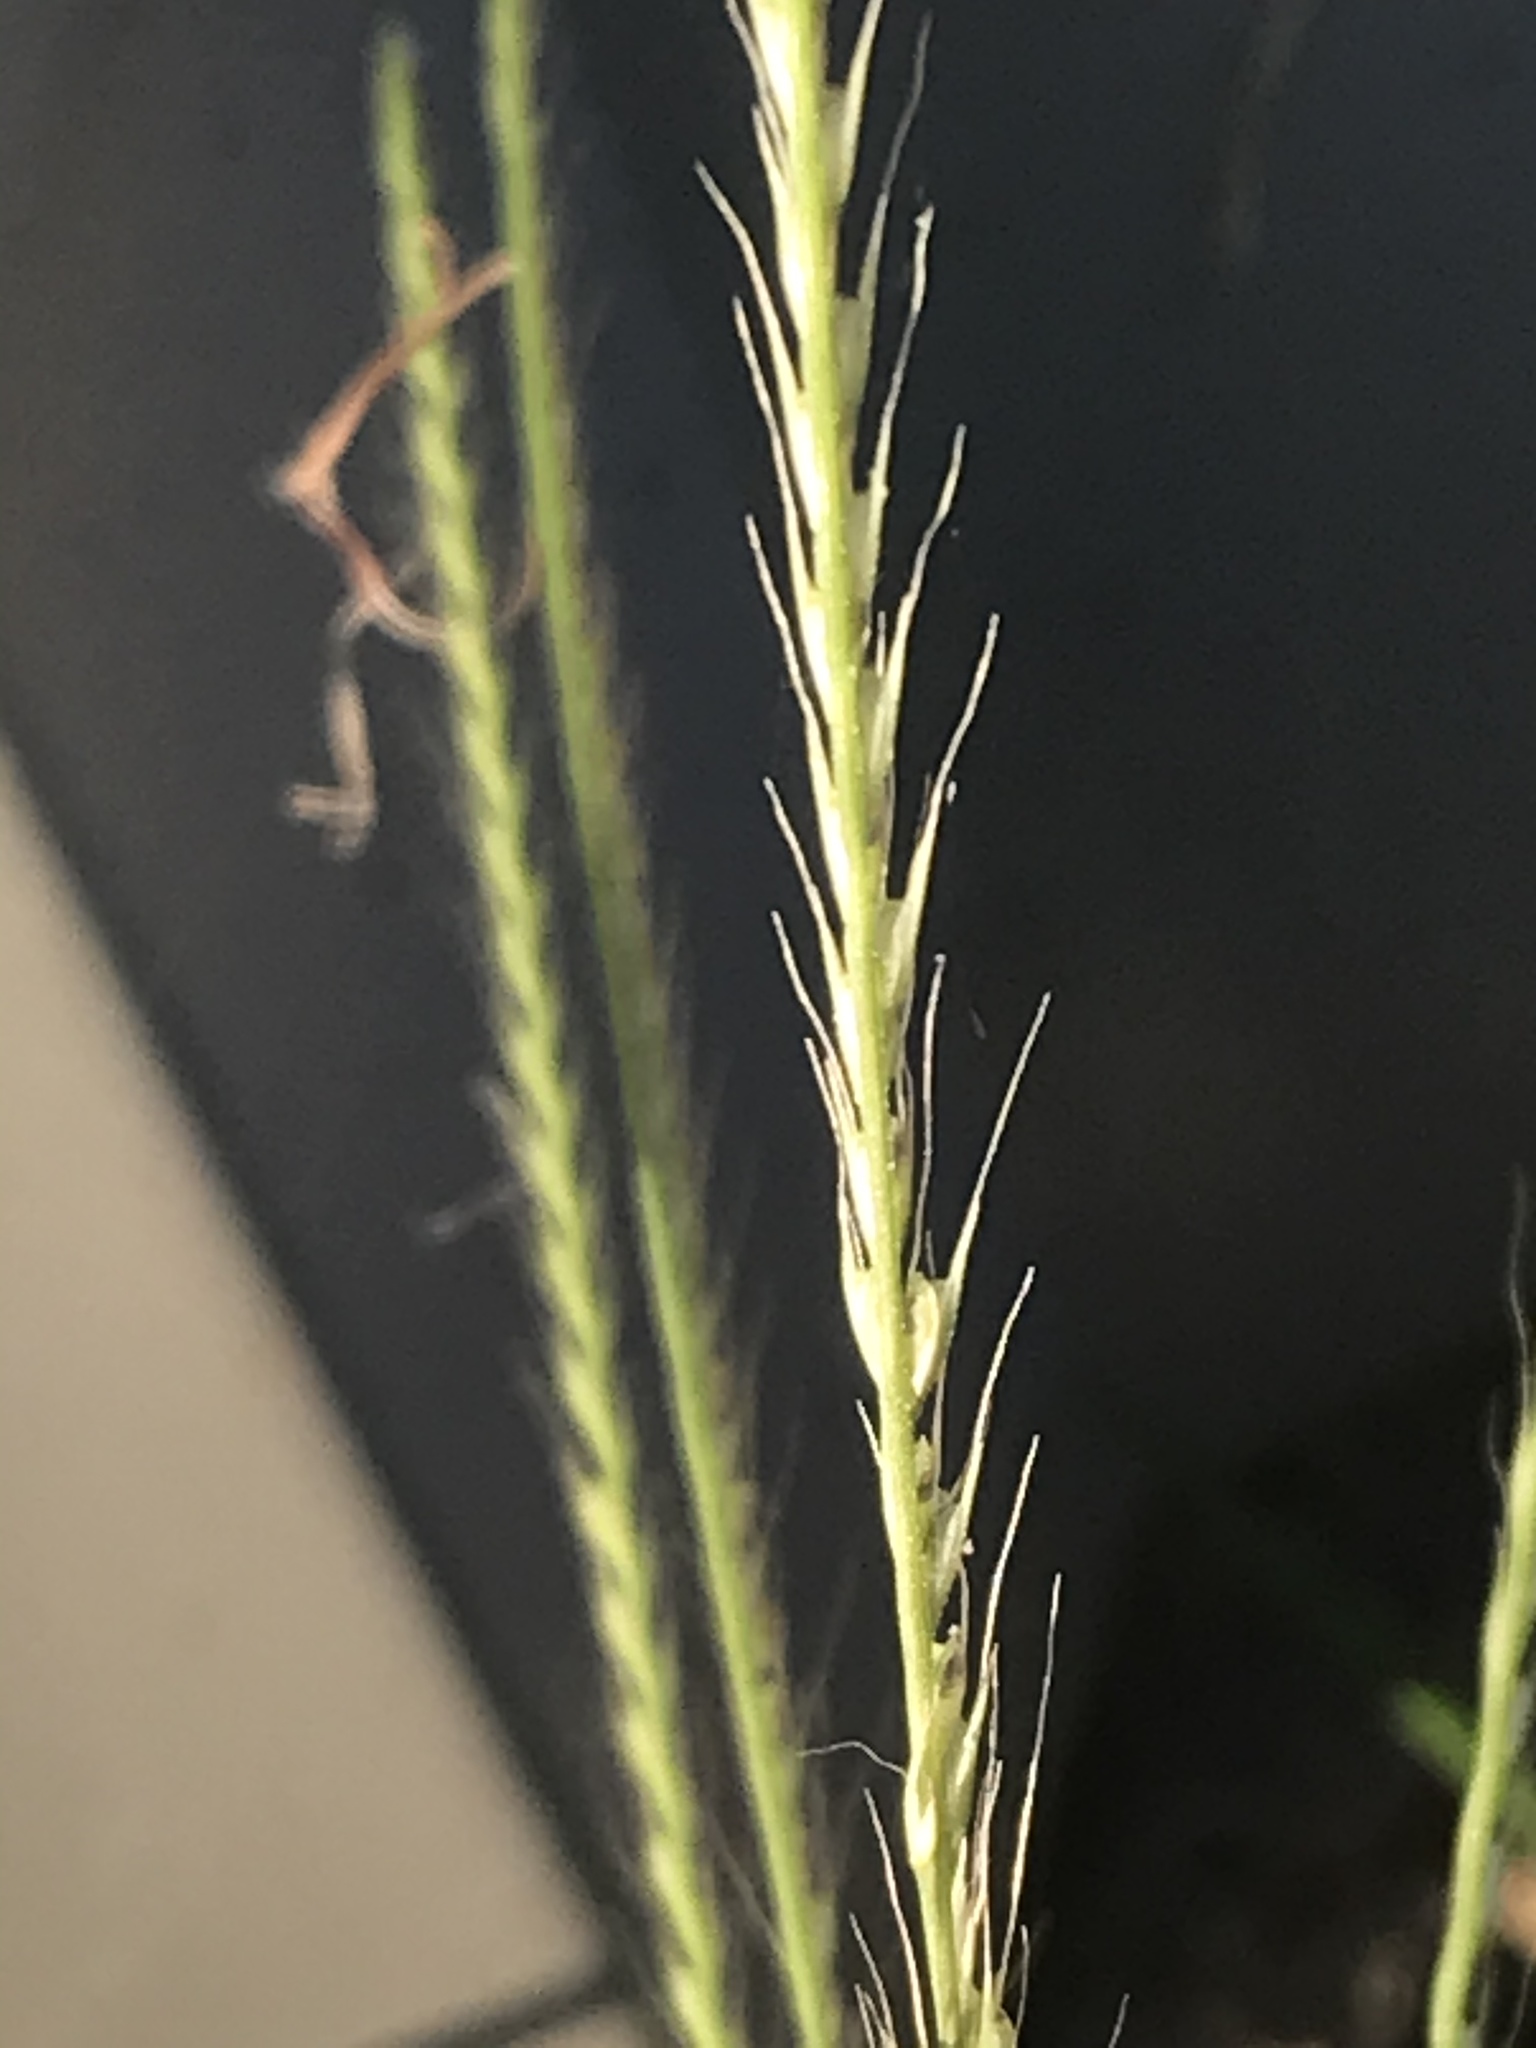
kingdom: Plantae
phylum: Tracheophyta
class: Liliopsida
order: Poales
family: Poaceae
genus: Chloris
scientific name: Chloris verticillata
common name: Tumble windmill grass
